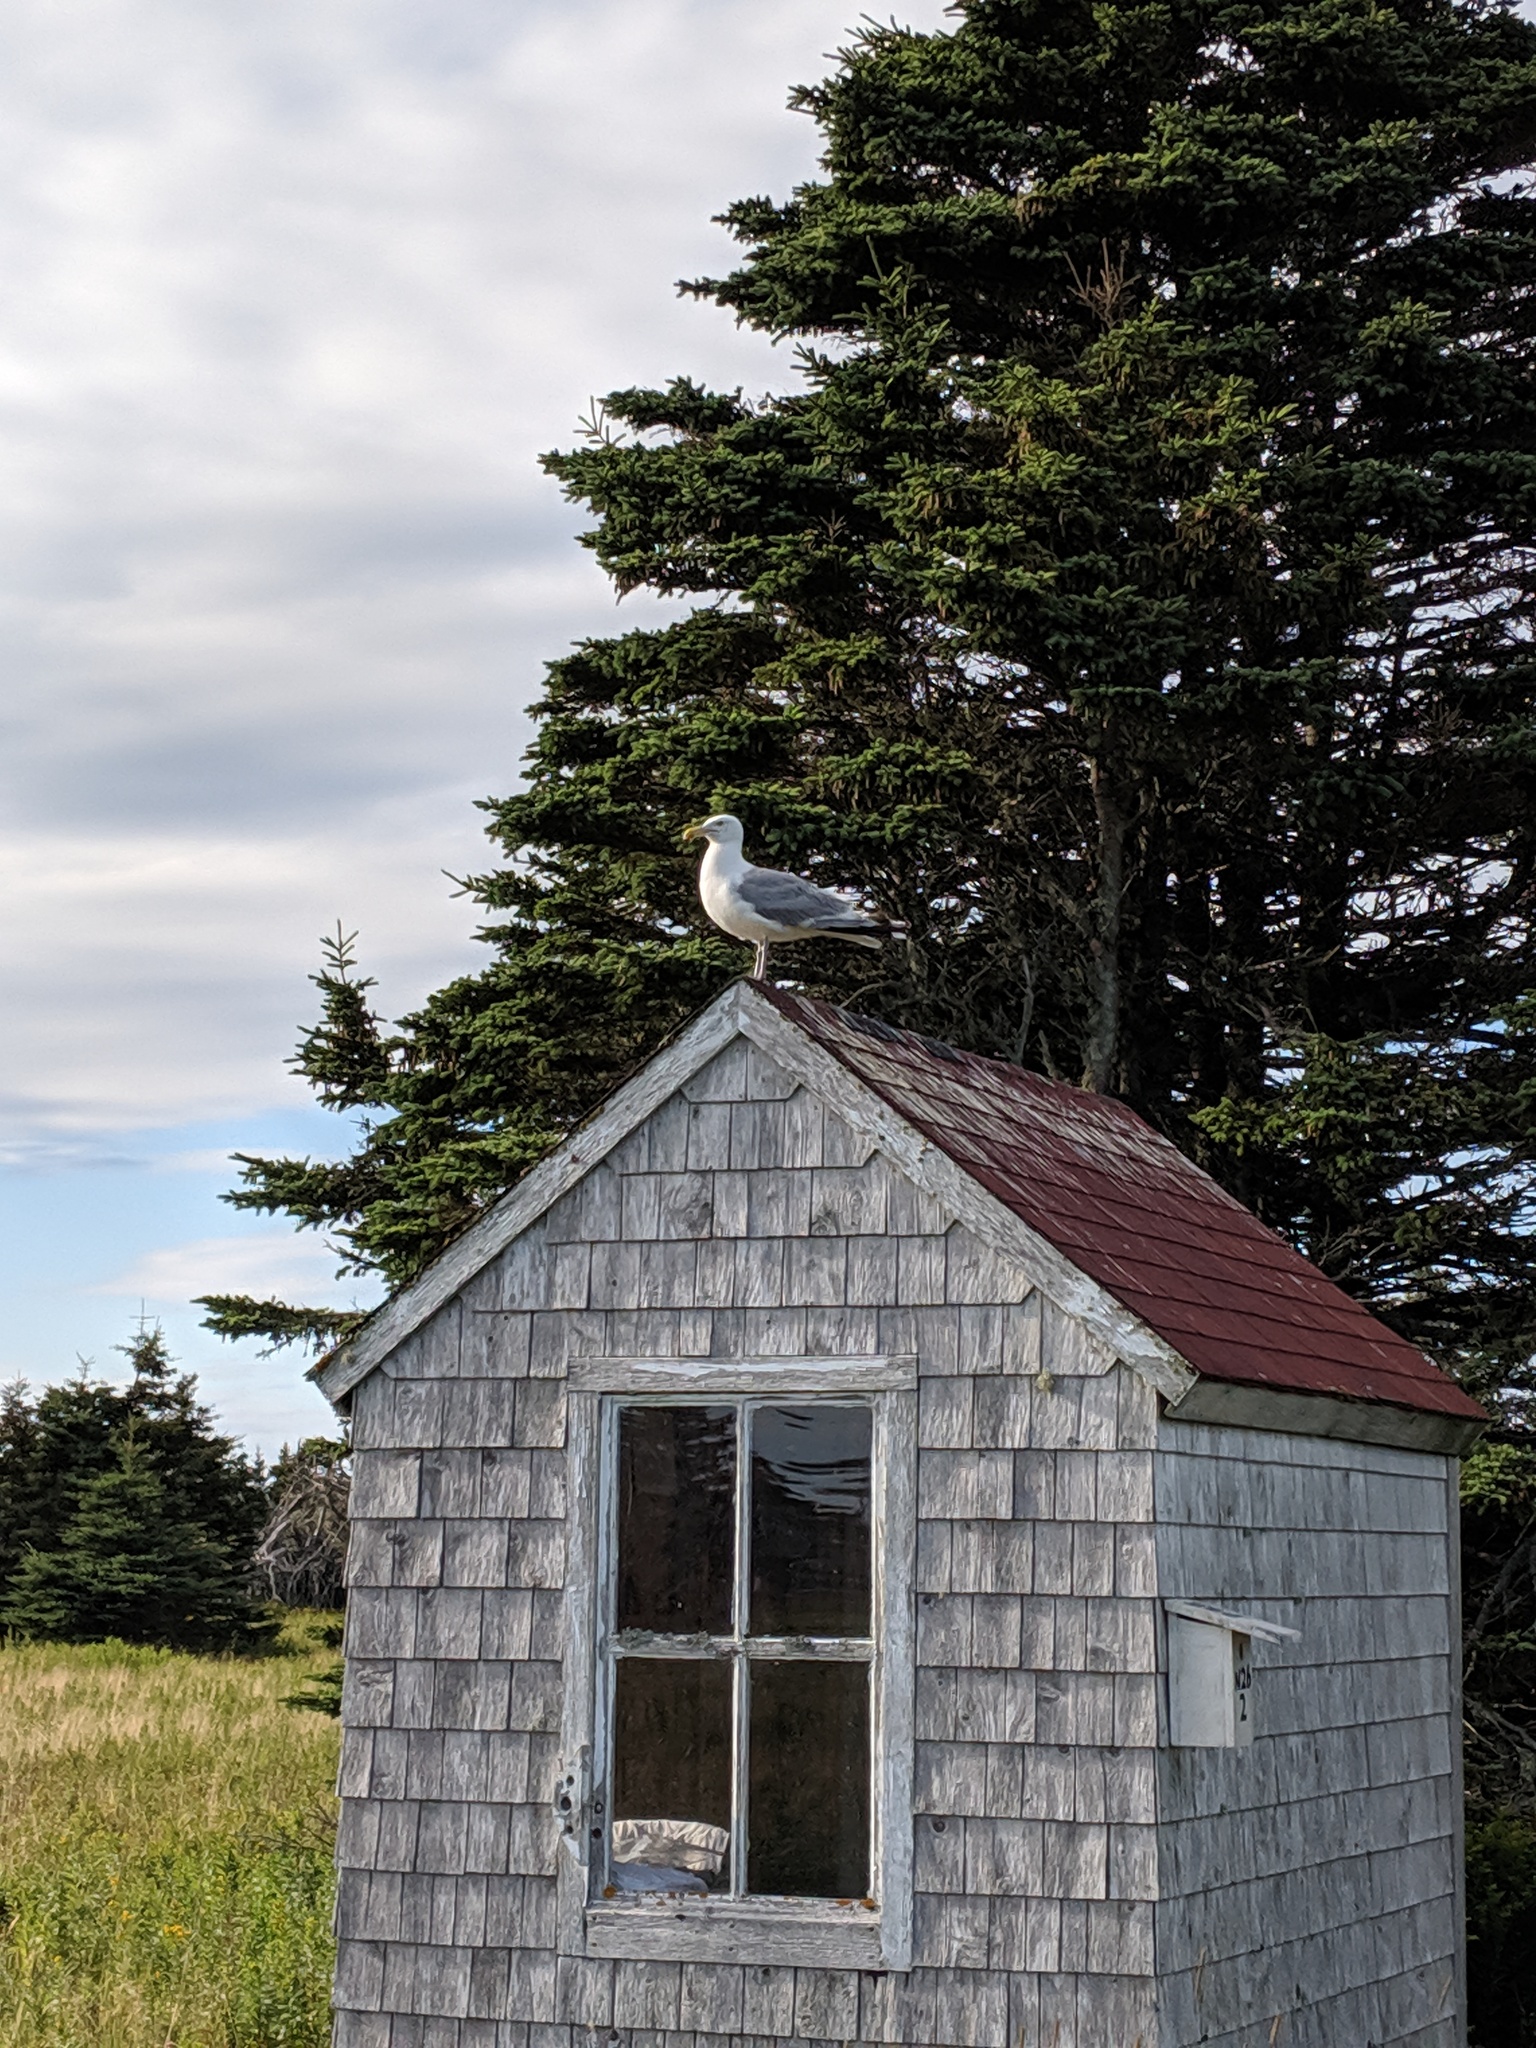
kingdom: Animalia
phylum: Chordata
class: Aves
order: Charadriiformes
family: Laridae
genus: Larus
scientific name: Larus argentatus
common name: Herring gull
